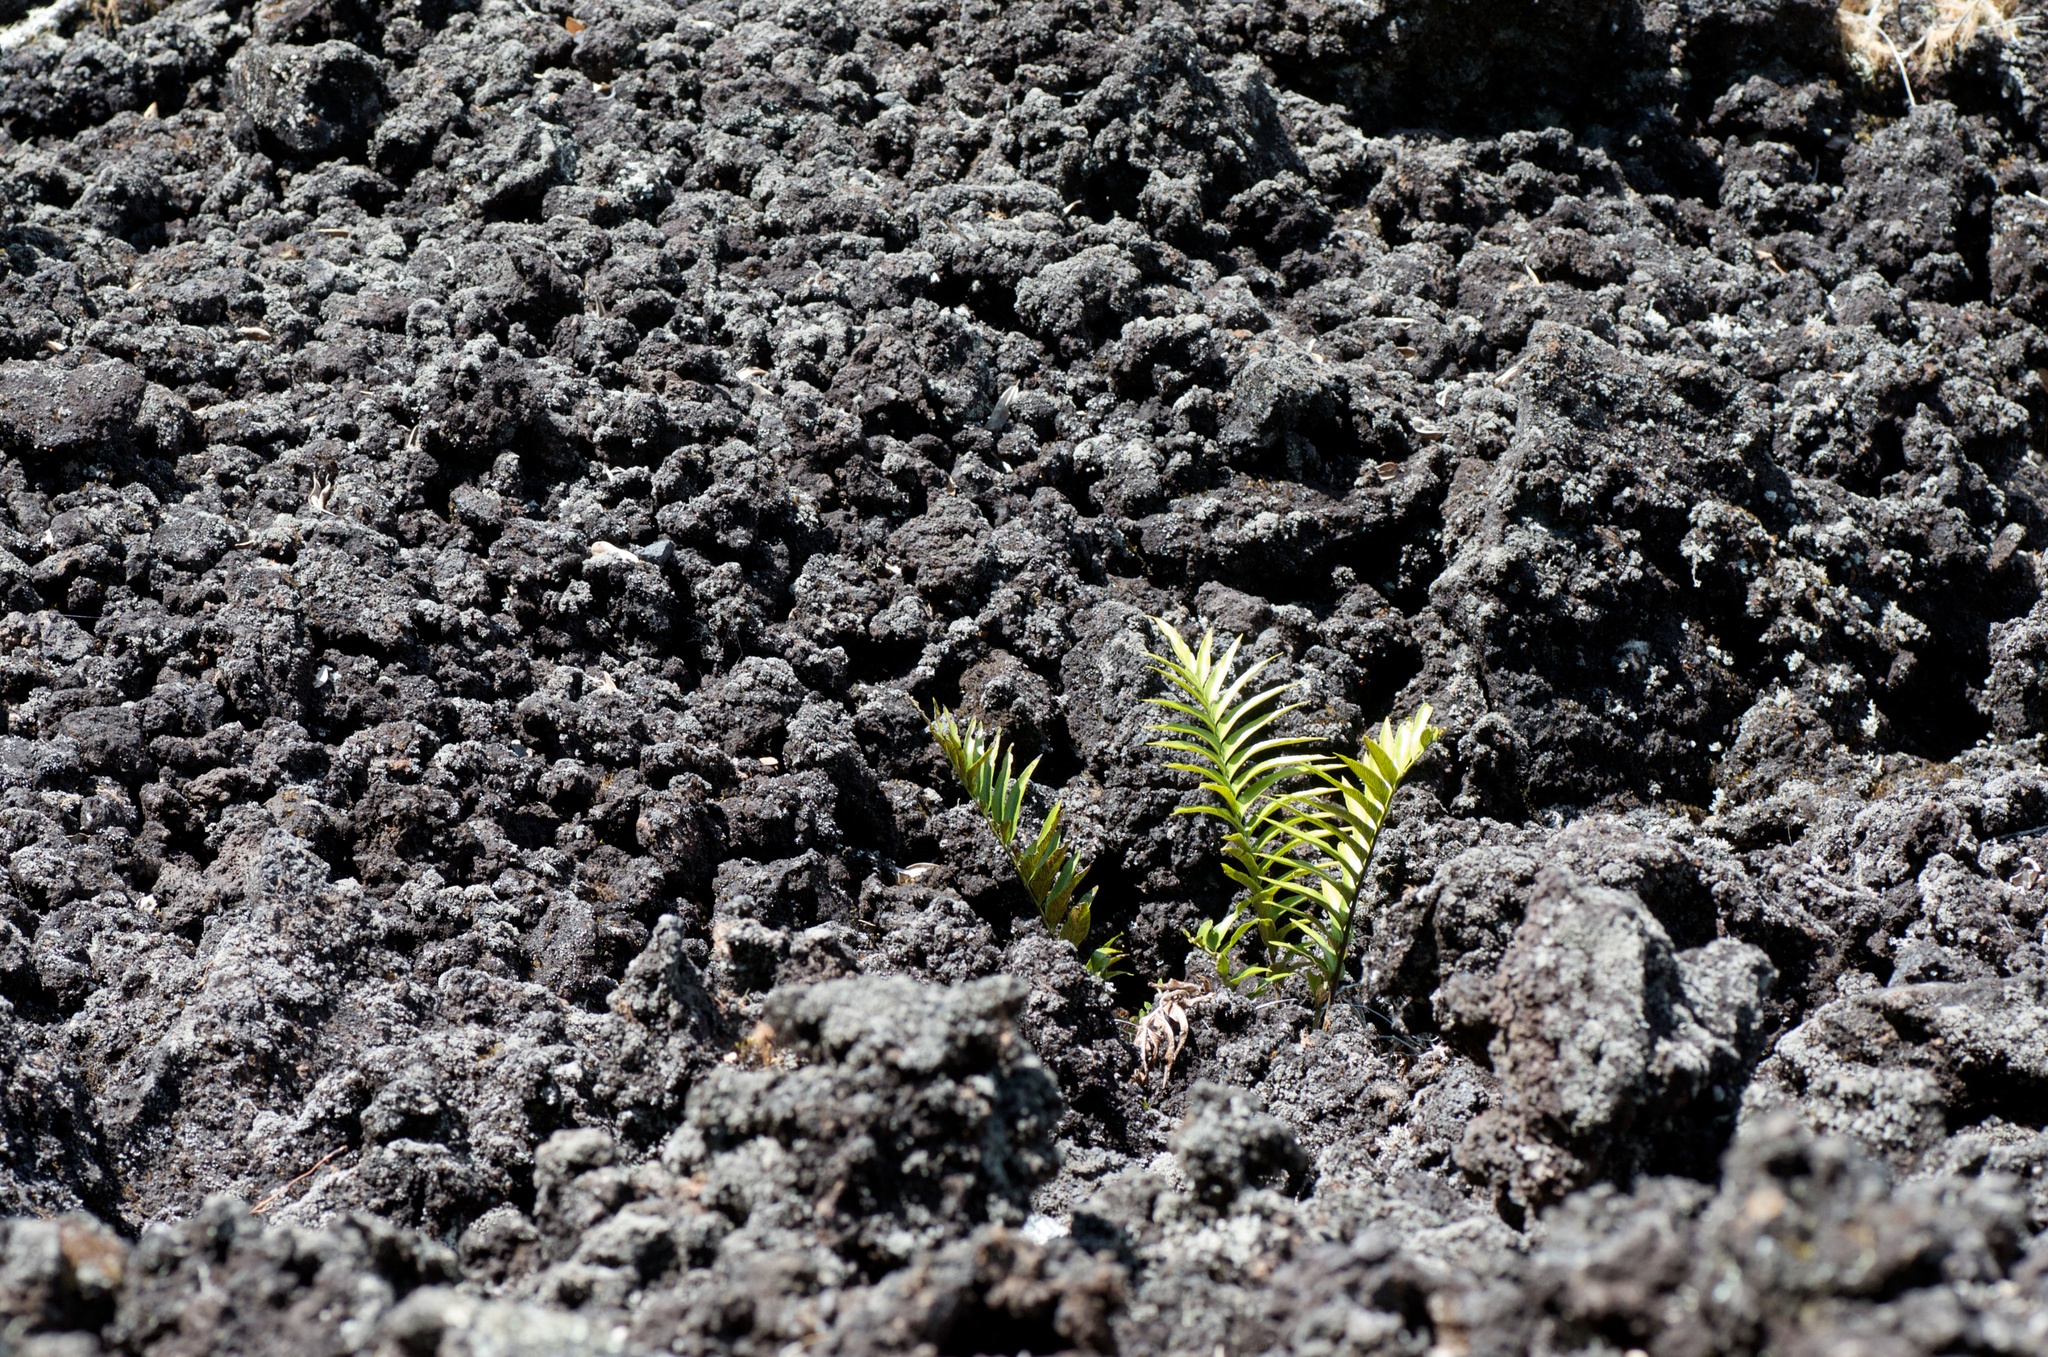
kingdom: Plantae
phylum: Tracheophyta
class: Polypodiopsida
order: Polypodiales
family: Aspleniaceae
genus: Asplenium
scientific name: Asplenium oblongifolium
